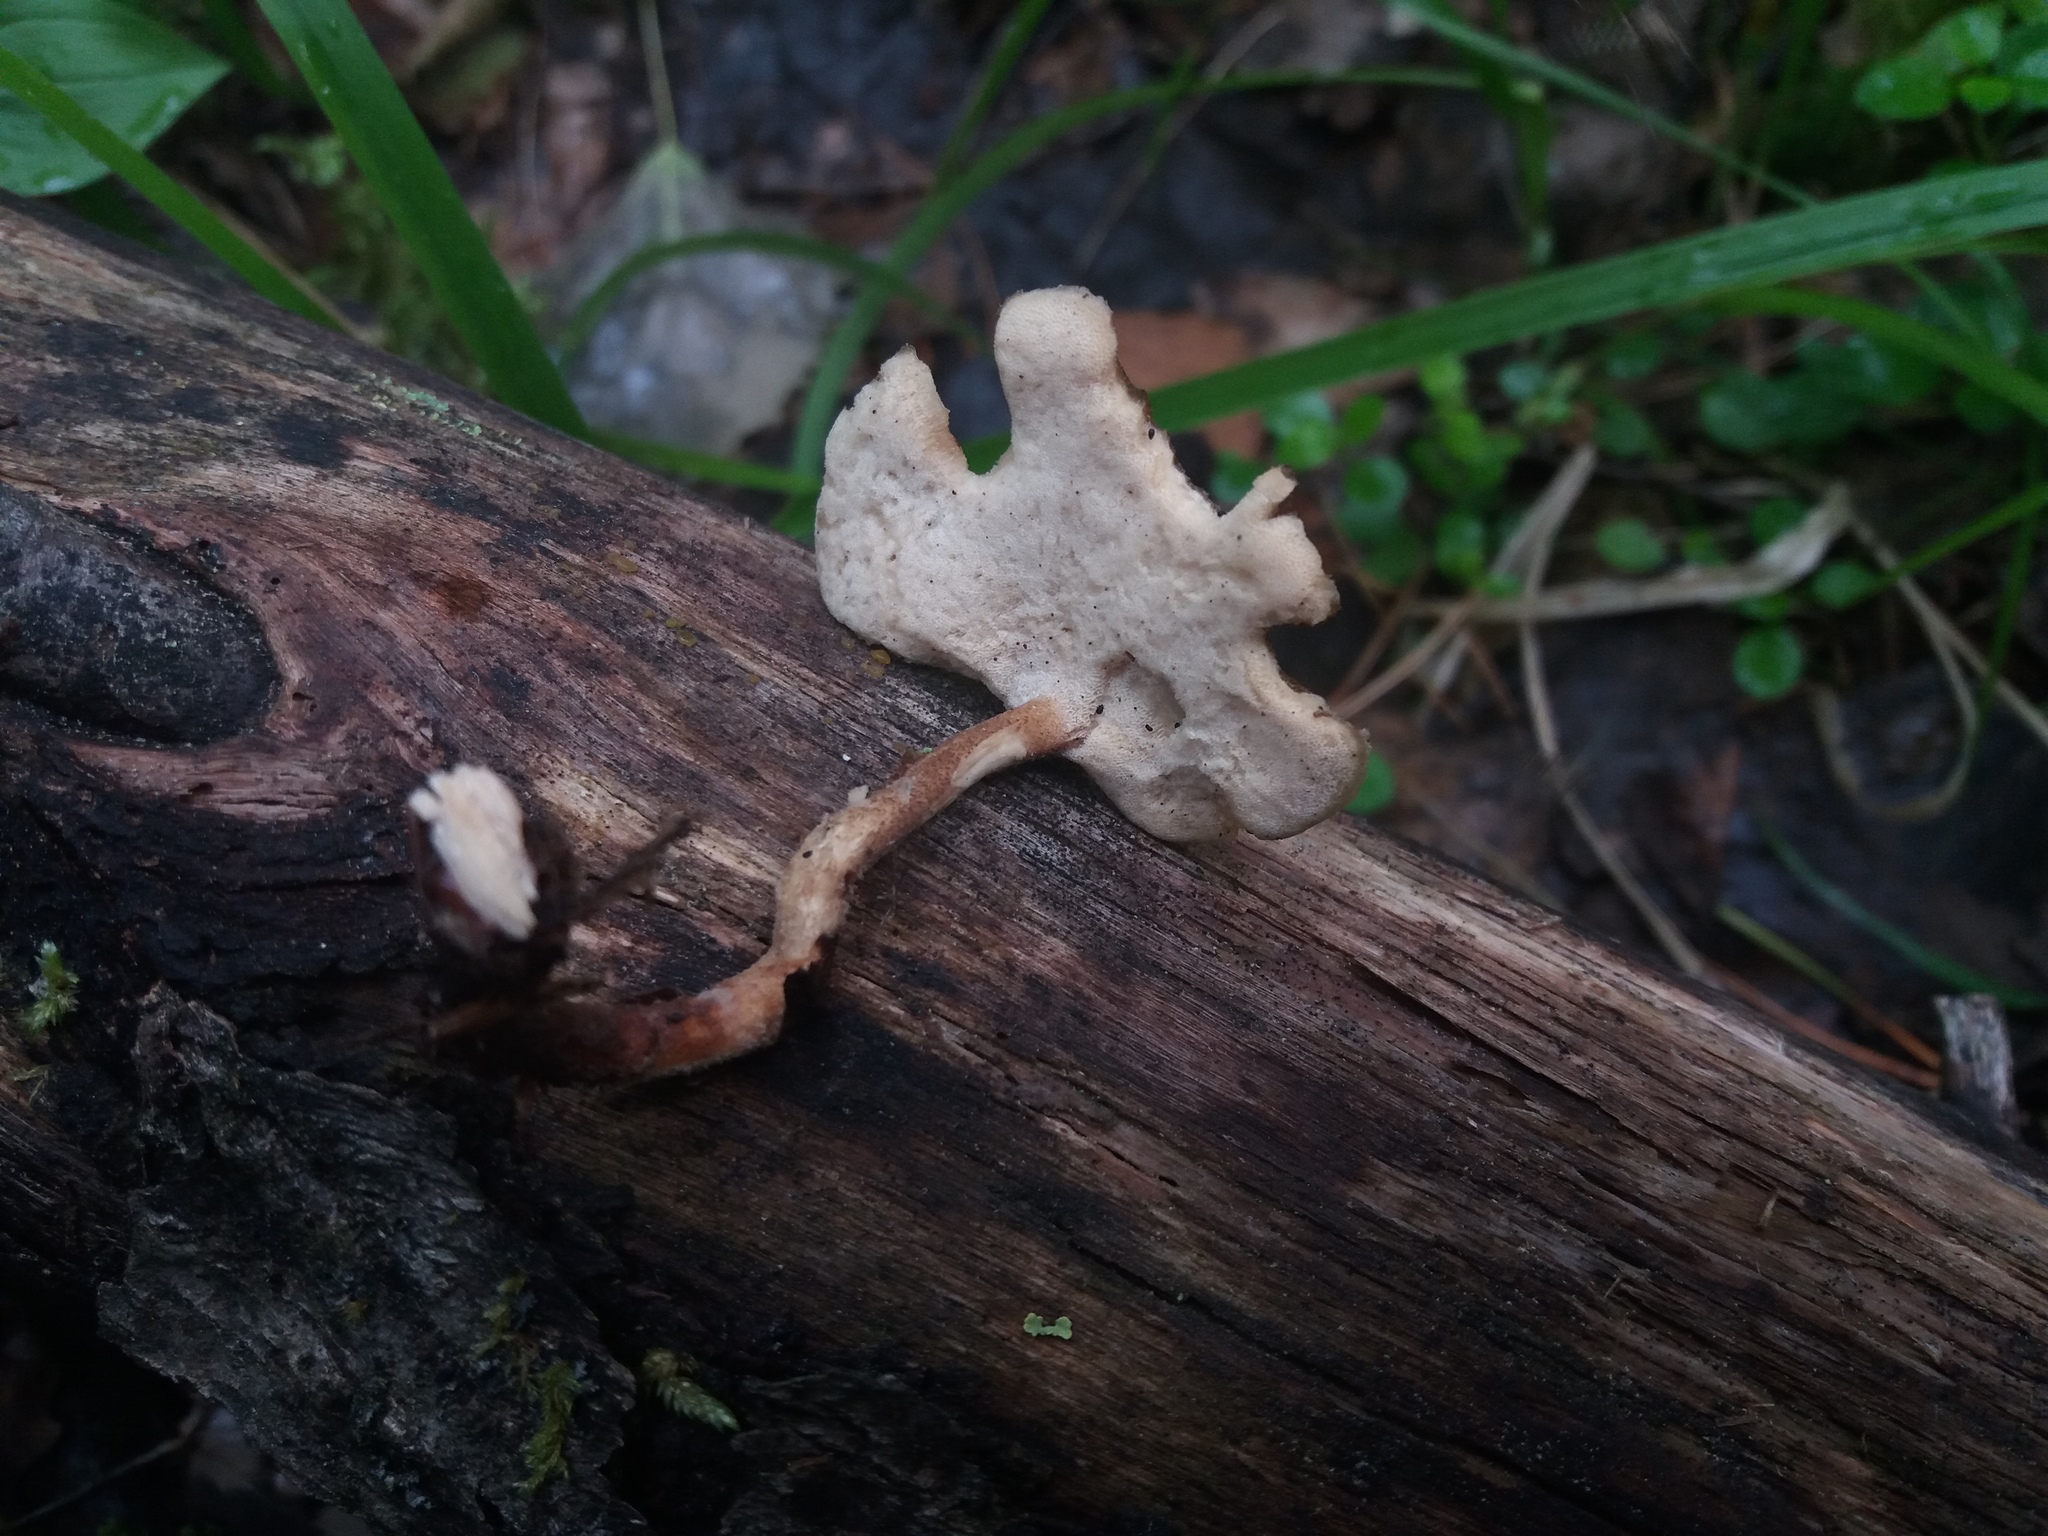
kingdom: Fungi
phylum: Basidiomycota
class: Agaricomycetes
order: Polyporales
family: Polyporaceae
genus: Lentinus
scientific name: Lentinus substrictus
